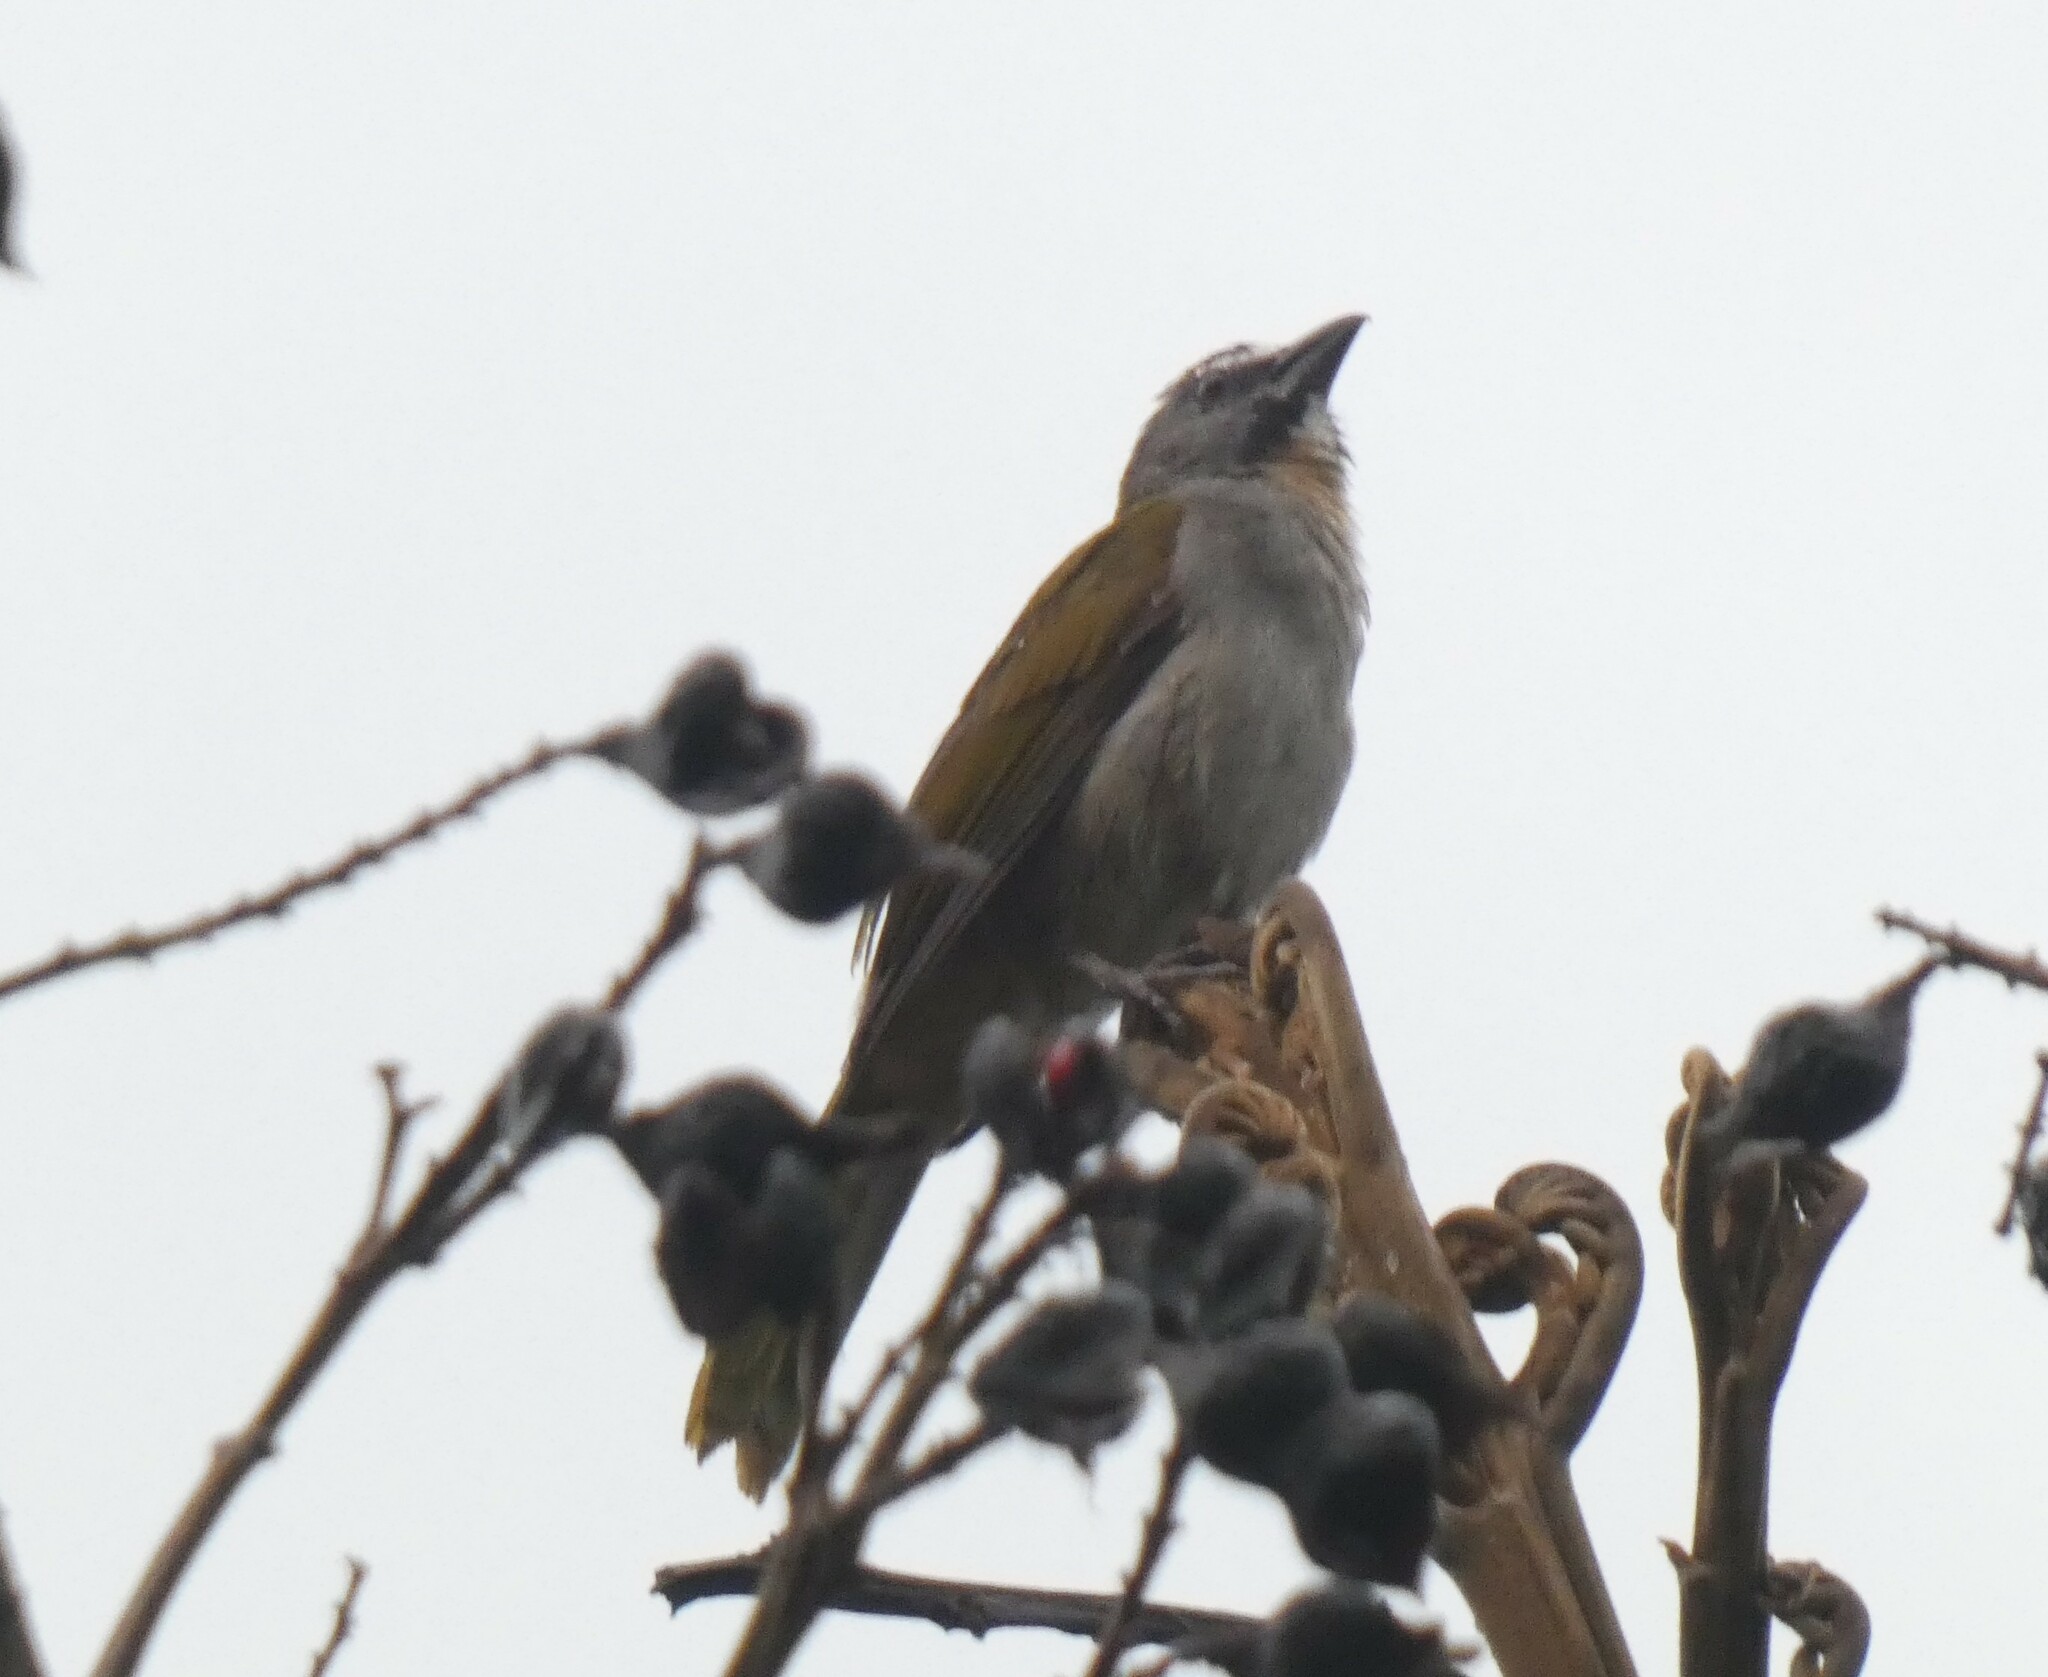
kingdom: Animalia
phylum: Chordata
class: Aves
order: Passeriformes
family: Thraupidae
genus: Saltator
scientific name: Saltator maximus
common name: Buff-throated saltator
